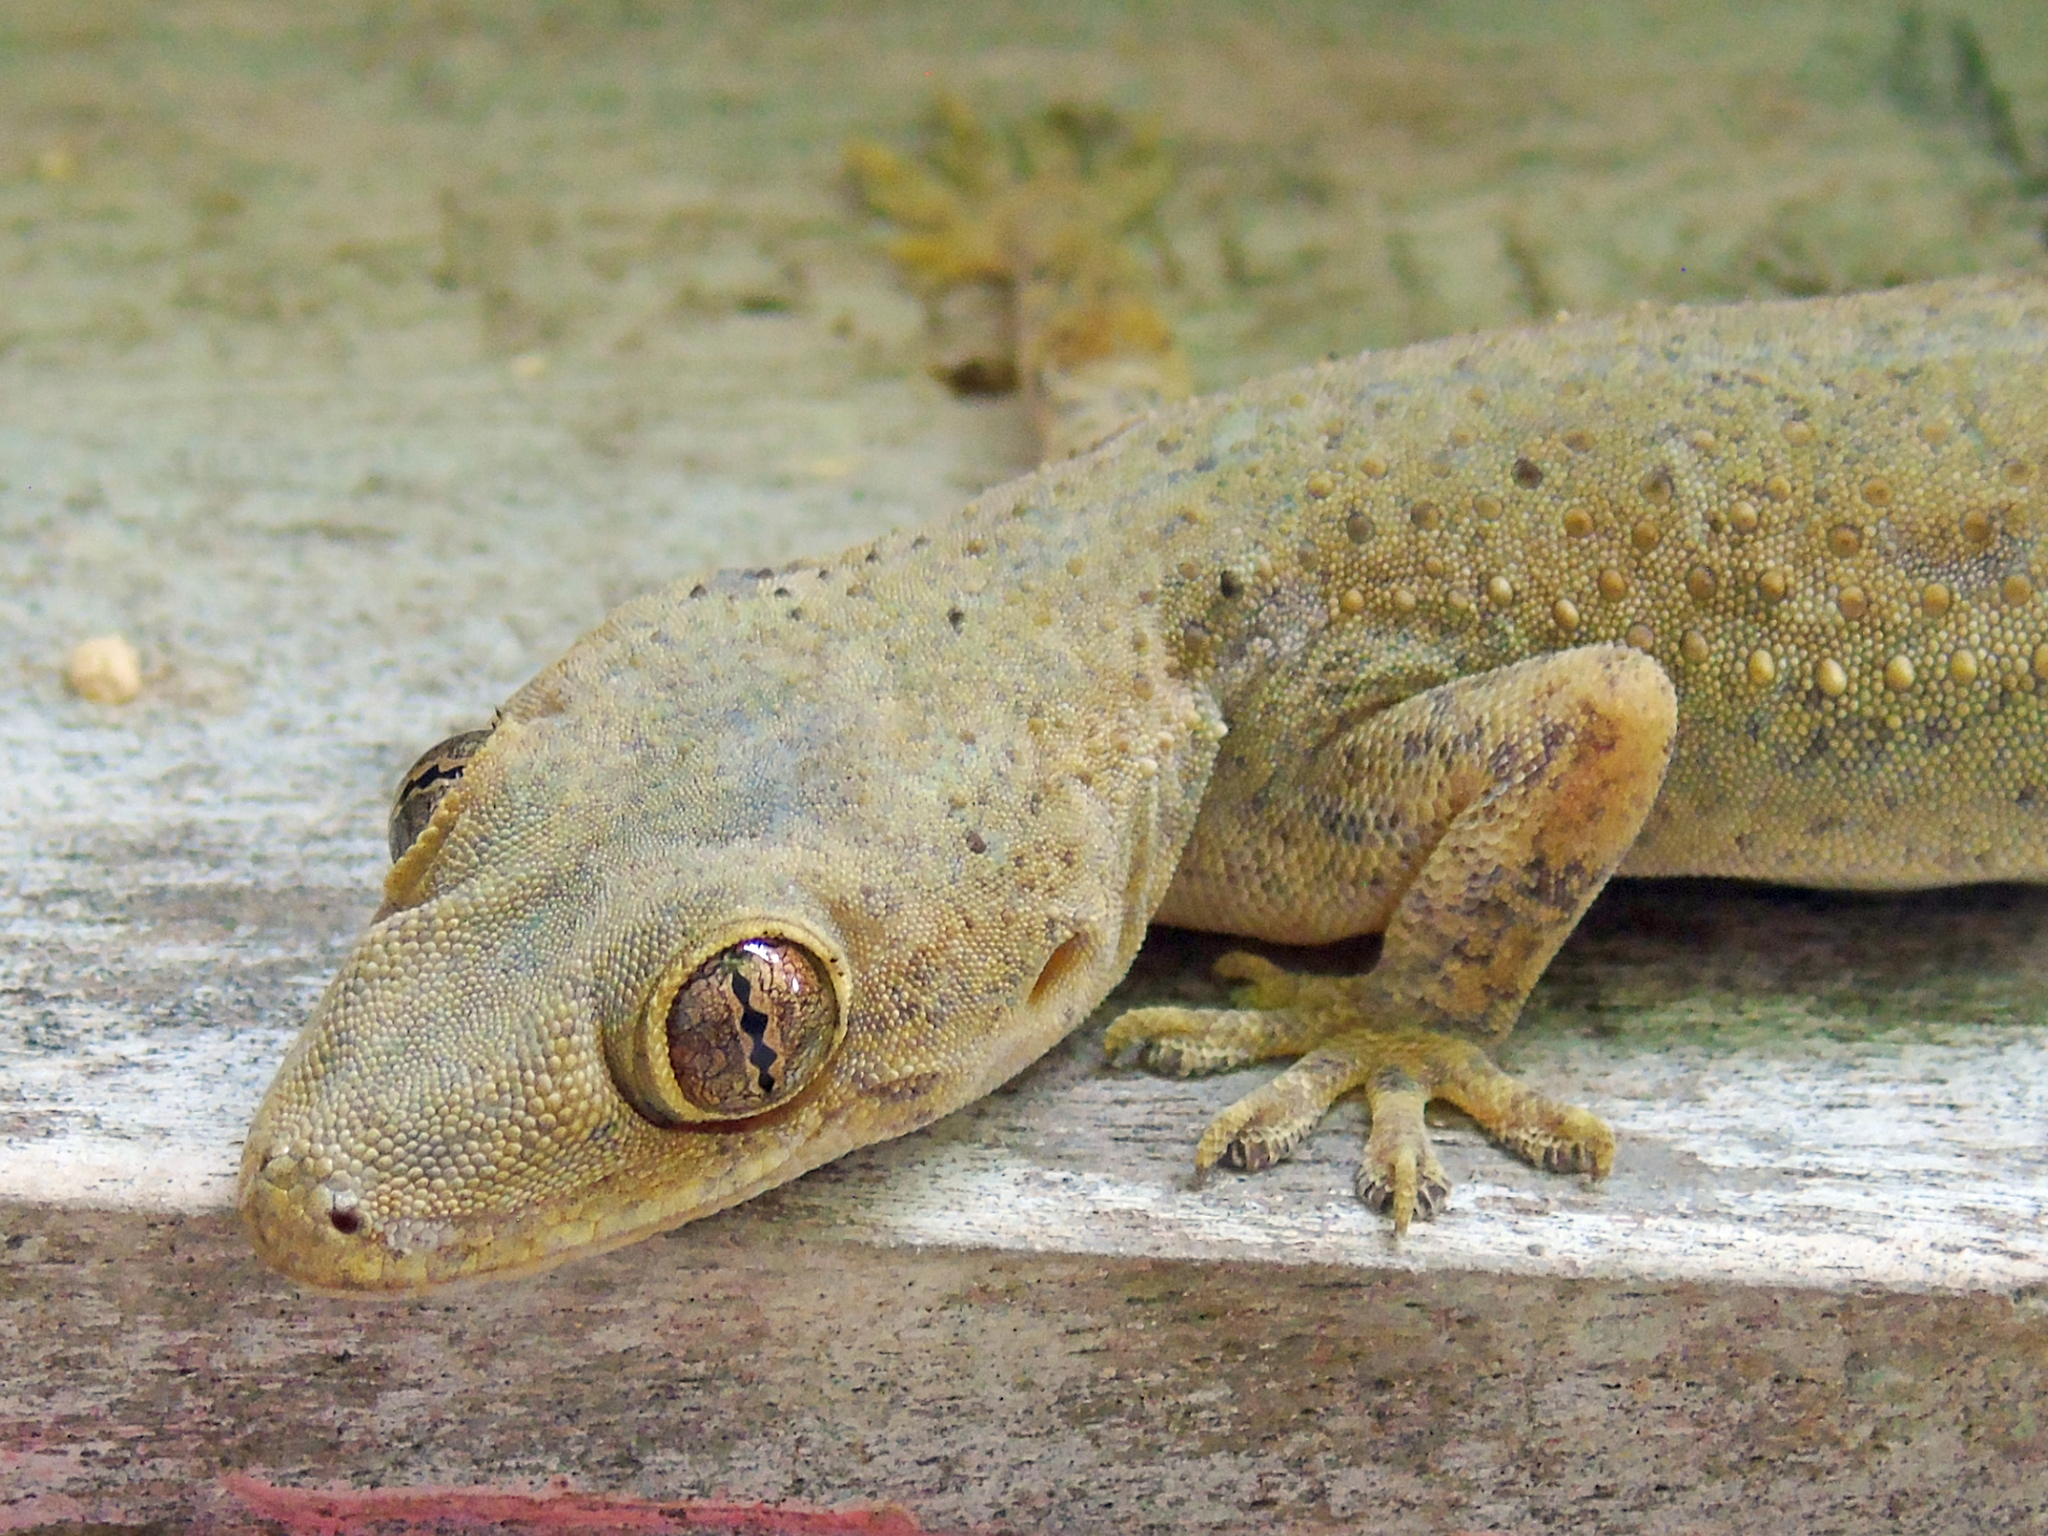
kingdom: Animalia
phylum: Chordata
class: Squamata
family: Gekkonidae
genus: Hemidactylus
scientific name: Hemidactylus mabouia
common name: House gecko
